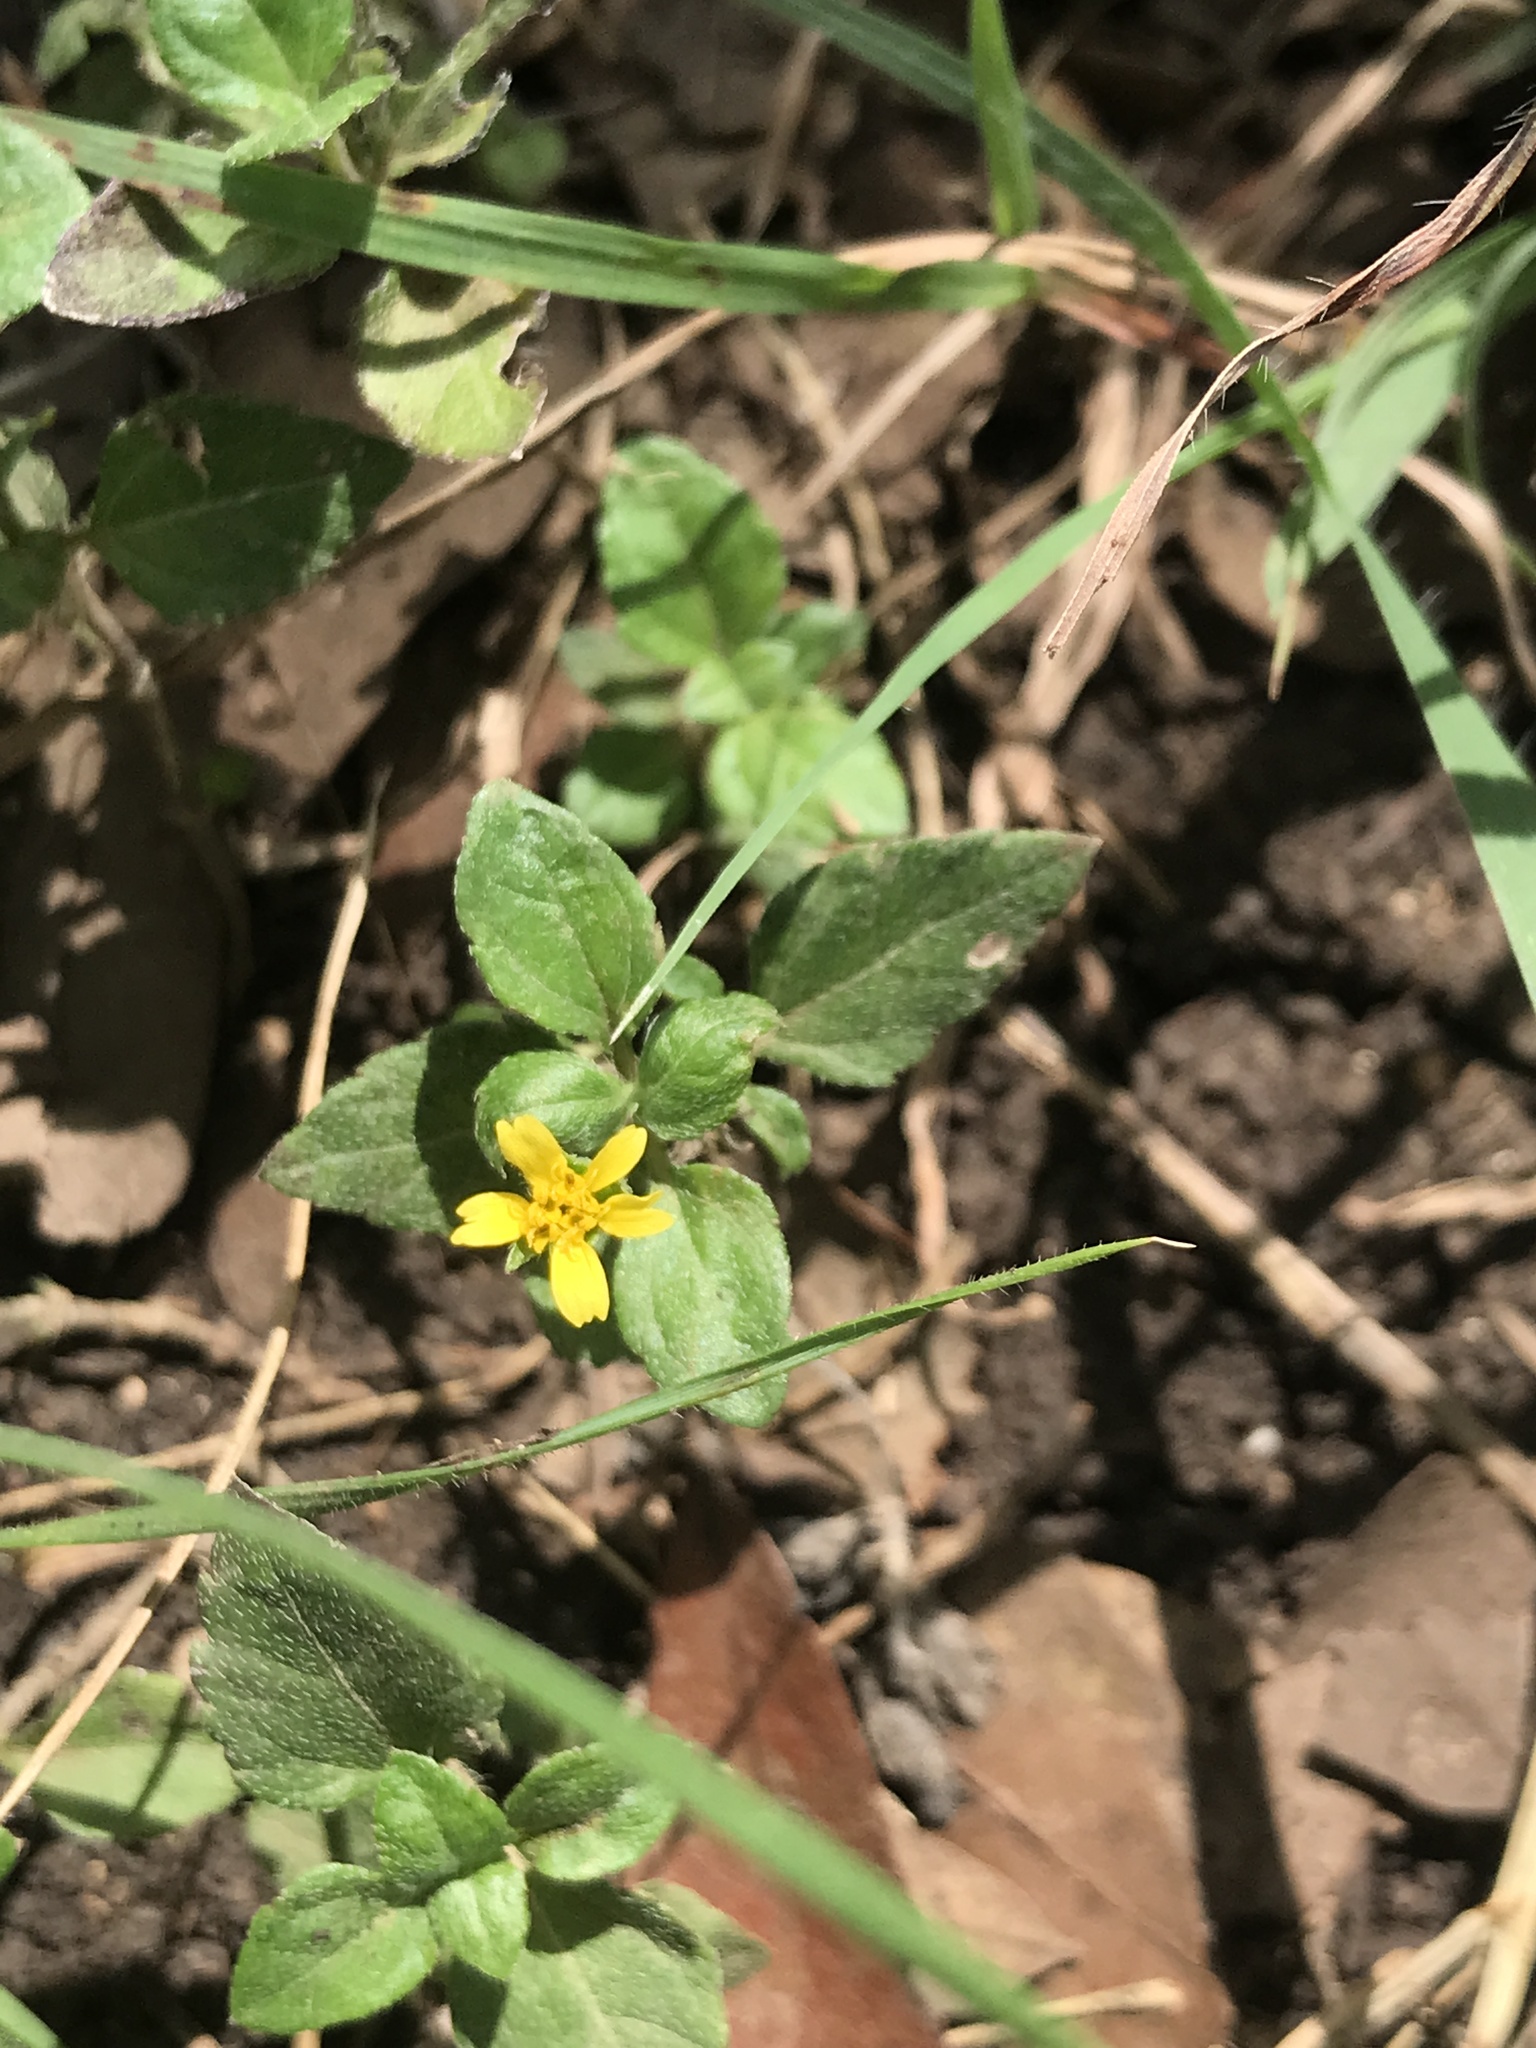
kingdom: Plantae
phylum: Tracheophyta
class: Magnoliopsida
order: Asterales
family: Asteraceae
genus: Calyptocarpus
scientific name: Calyptocarpus vialis
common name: Straggler daisy
